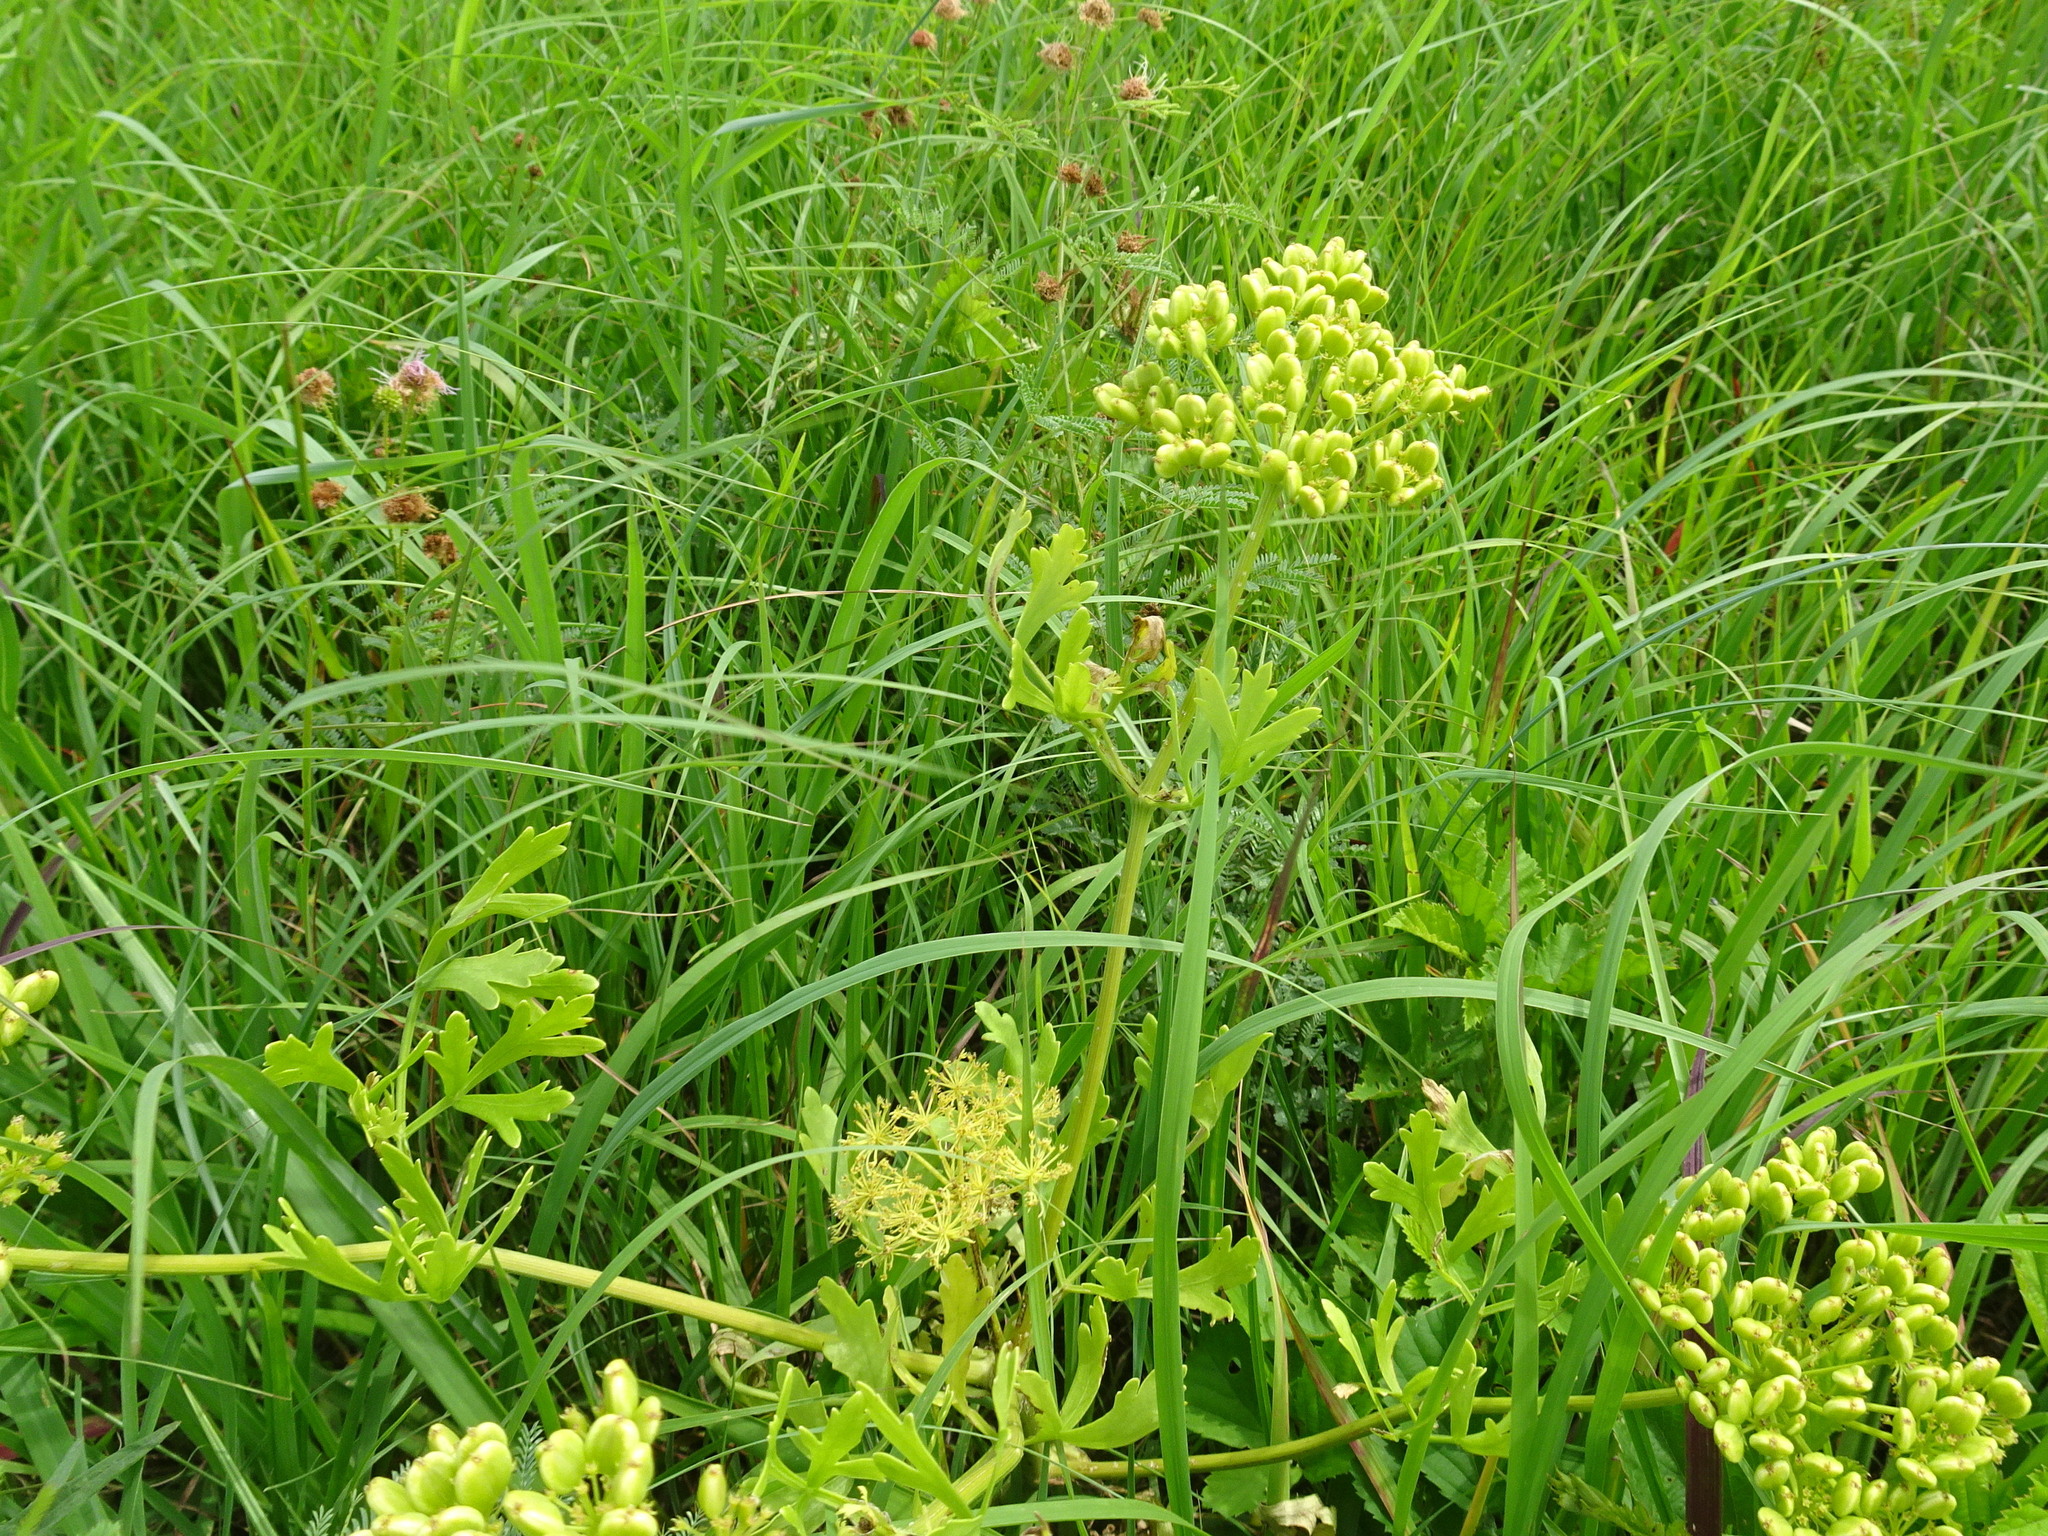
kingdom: Plantae
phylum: Tracheophyta
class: Magnoliopsida
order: Apiales
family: Apiaceae
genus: Polytaenia
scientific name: Polytaenia nuttallii
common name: Prairie-parsley
